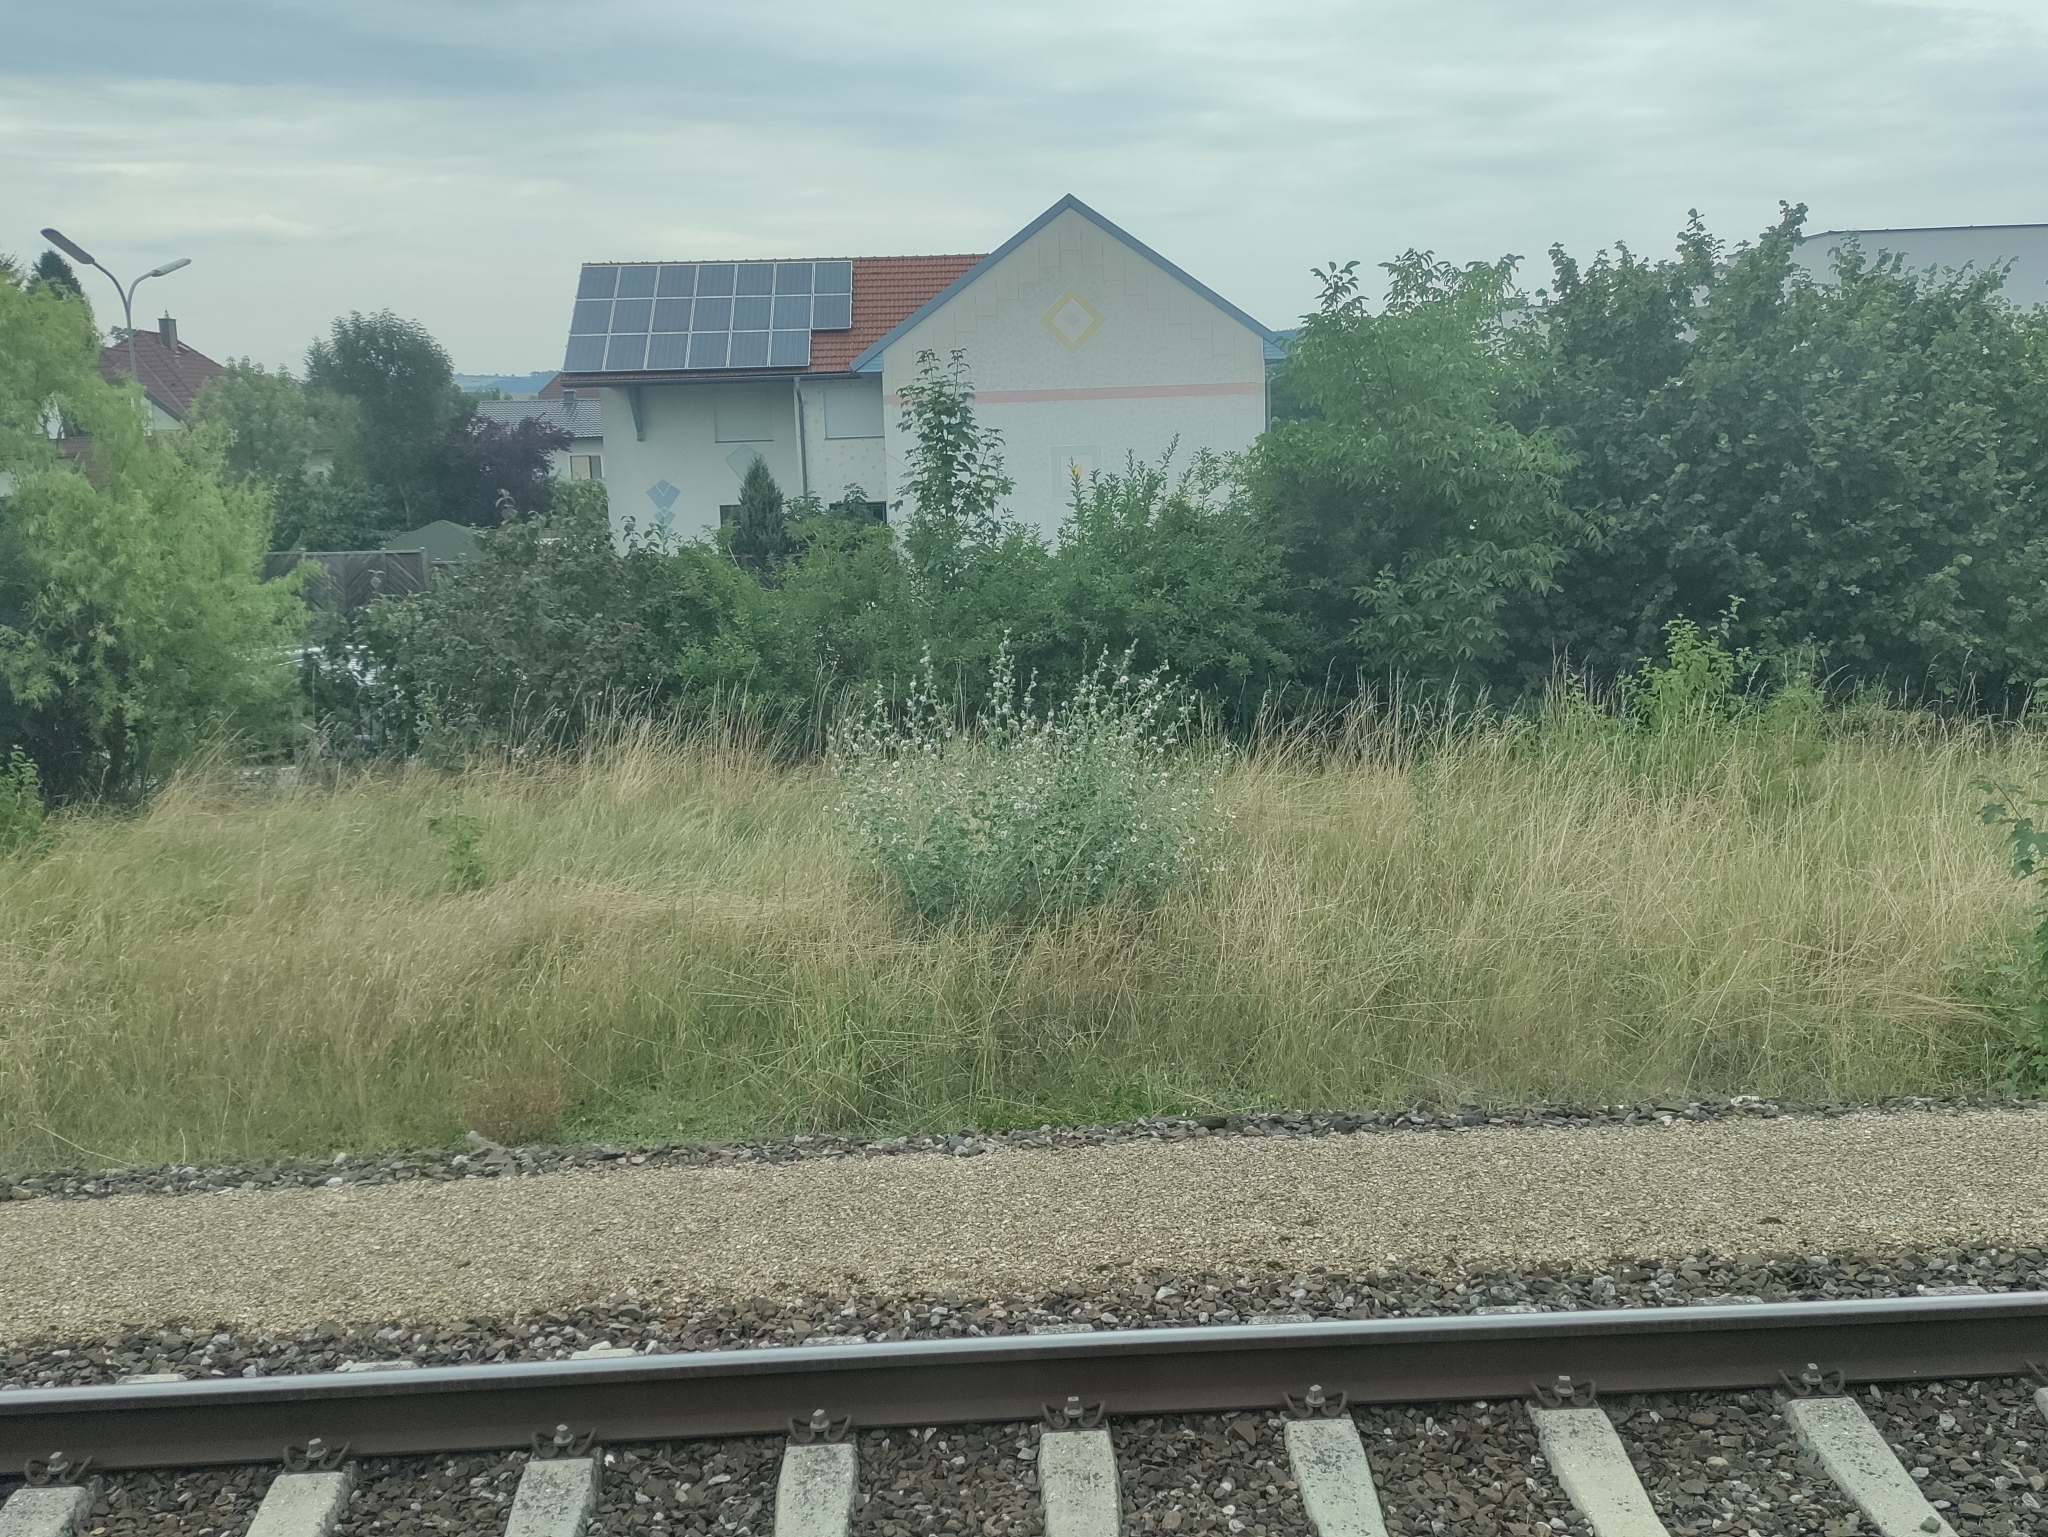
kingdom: Plantae
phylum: Tracheophyta
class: Magnoliopsida
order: Malvales
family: Malvaceae
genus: Althaea
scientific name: Althaea officinalis
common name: Marsh-mallow
